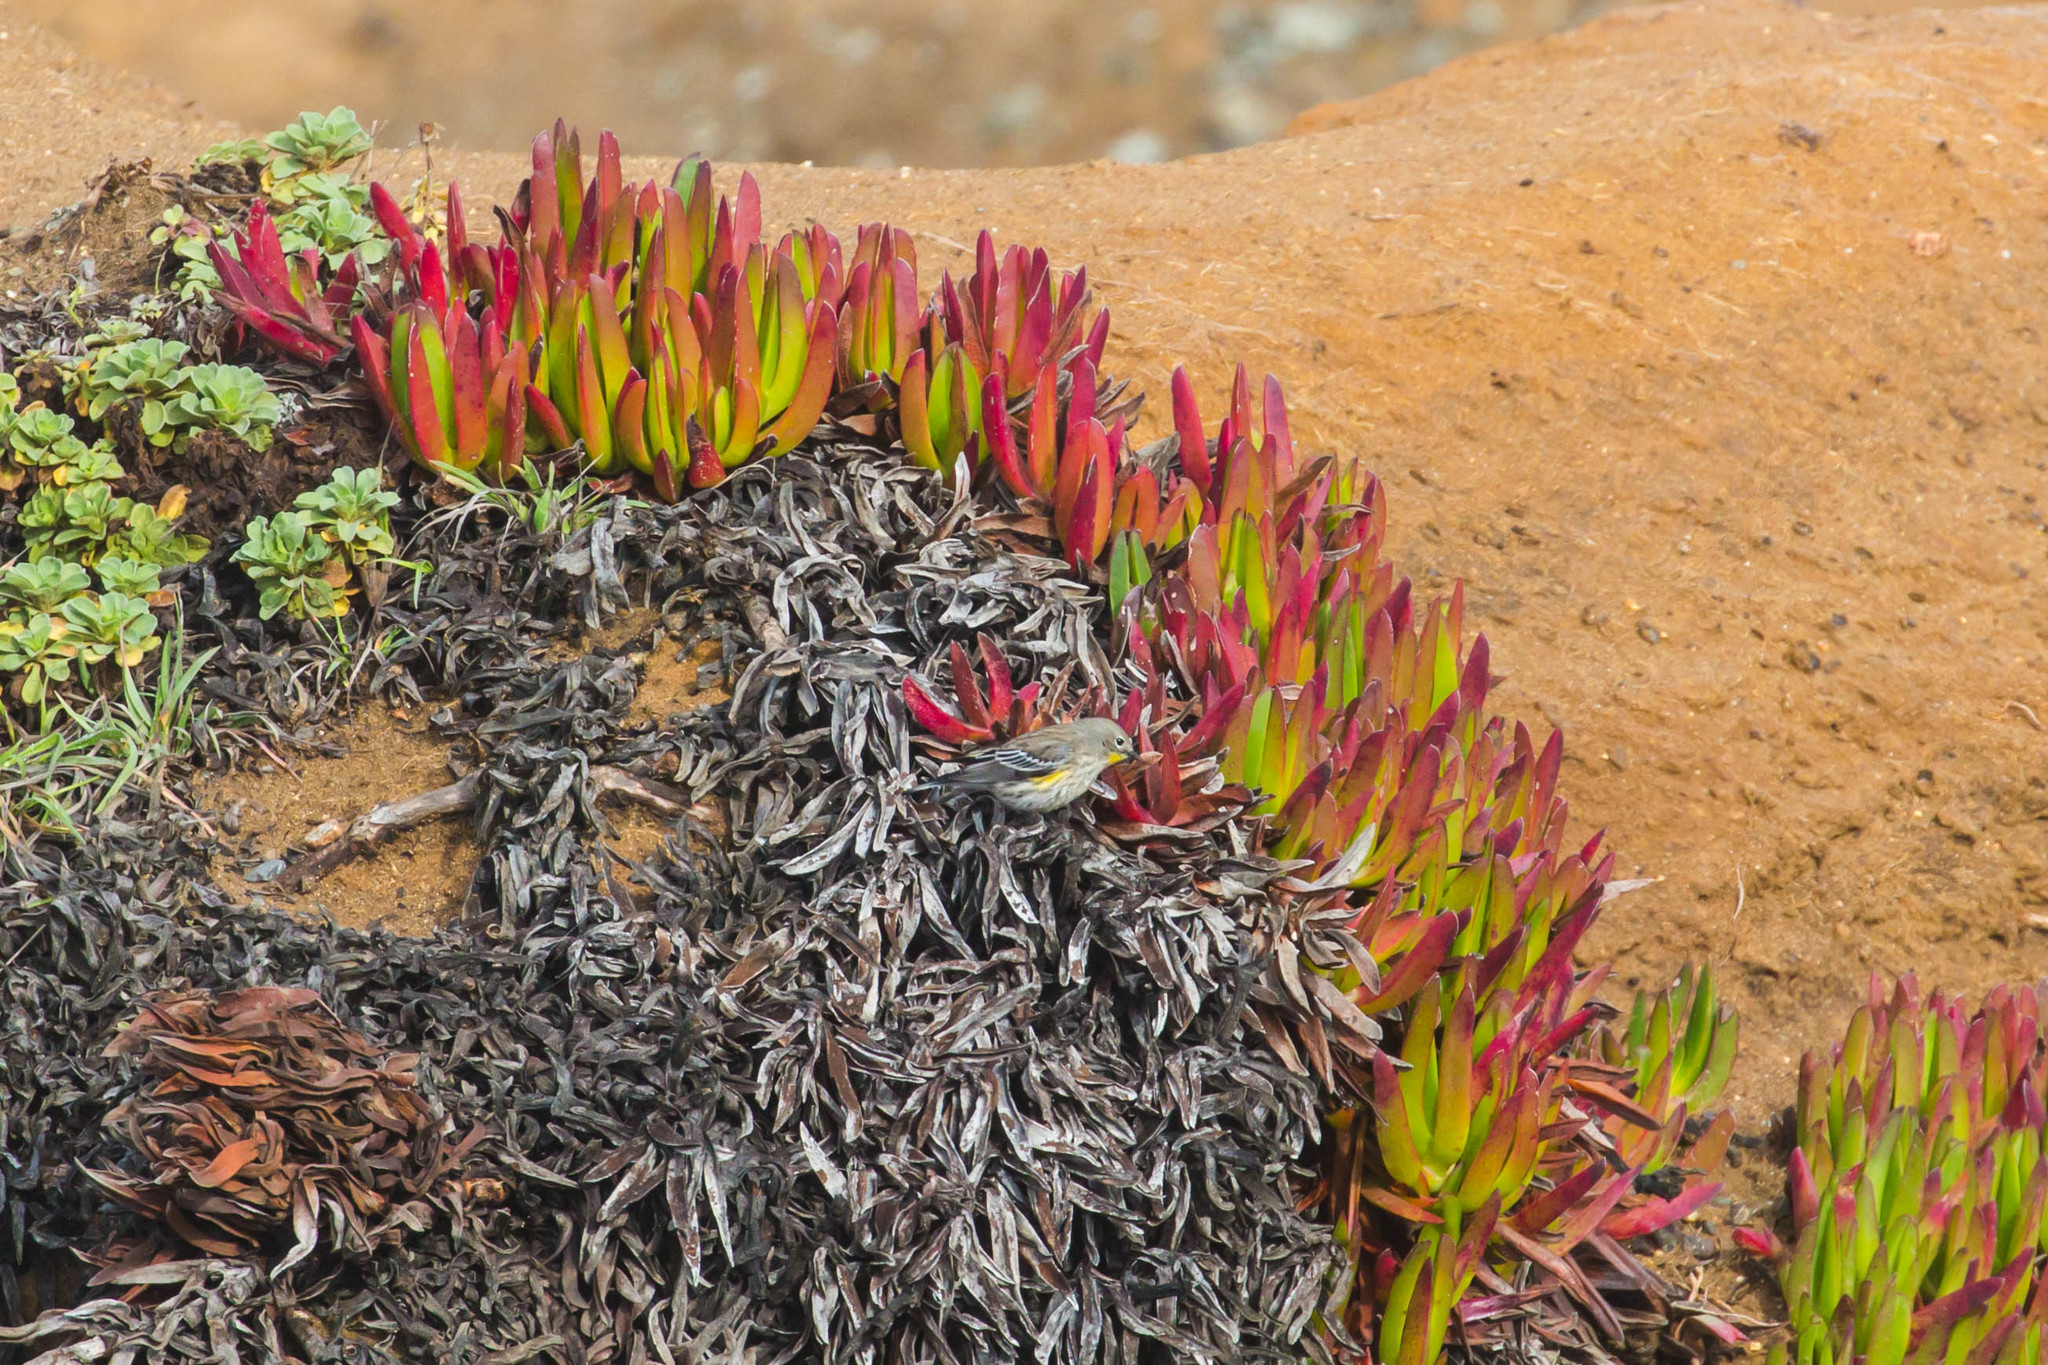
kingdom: Animalia
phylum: Chordata
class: Aves
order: Passeriformes
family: Parulidae
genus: Setophaga
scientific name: Setophaga coronata
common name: Myrtle warbler
